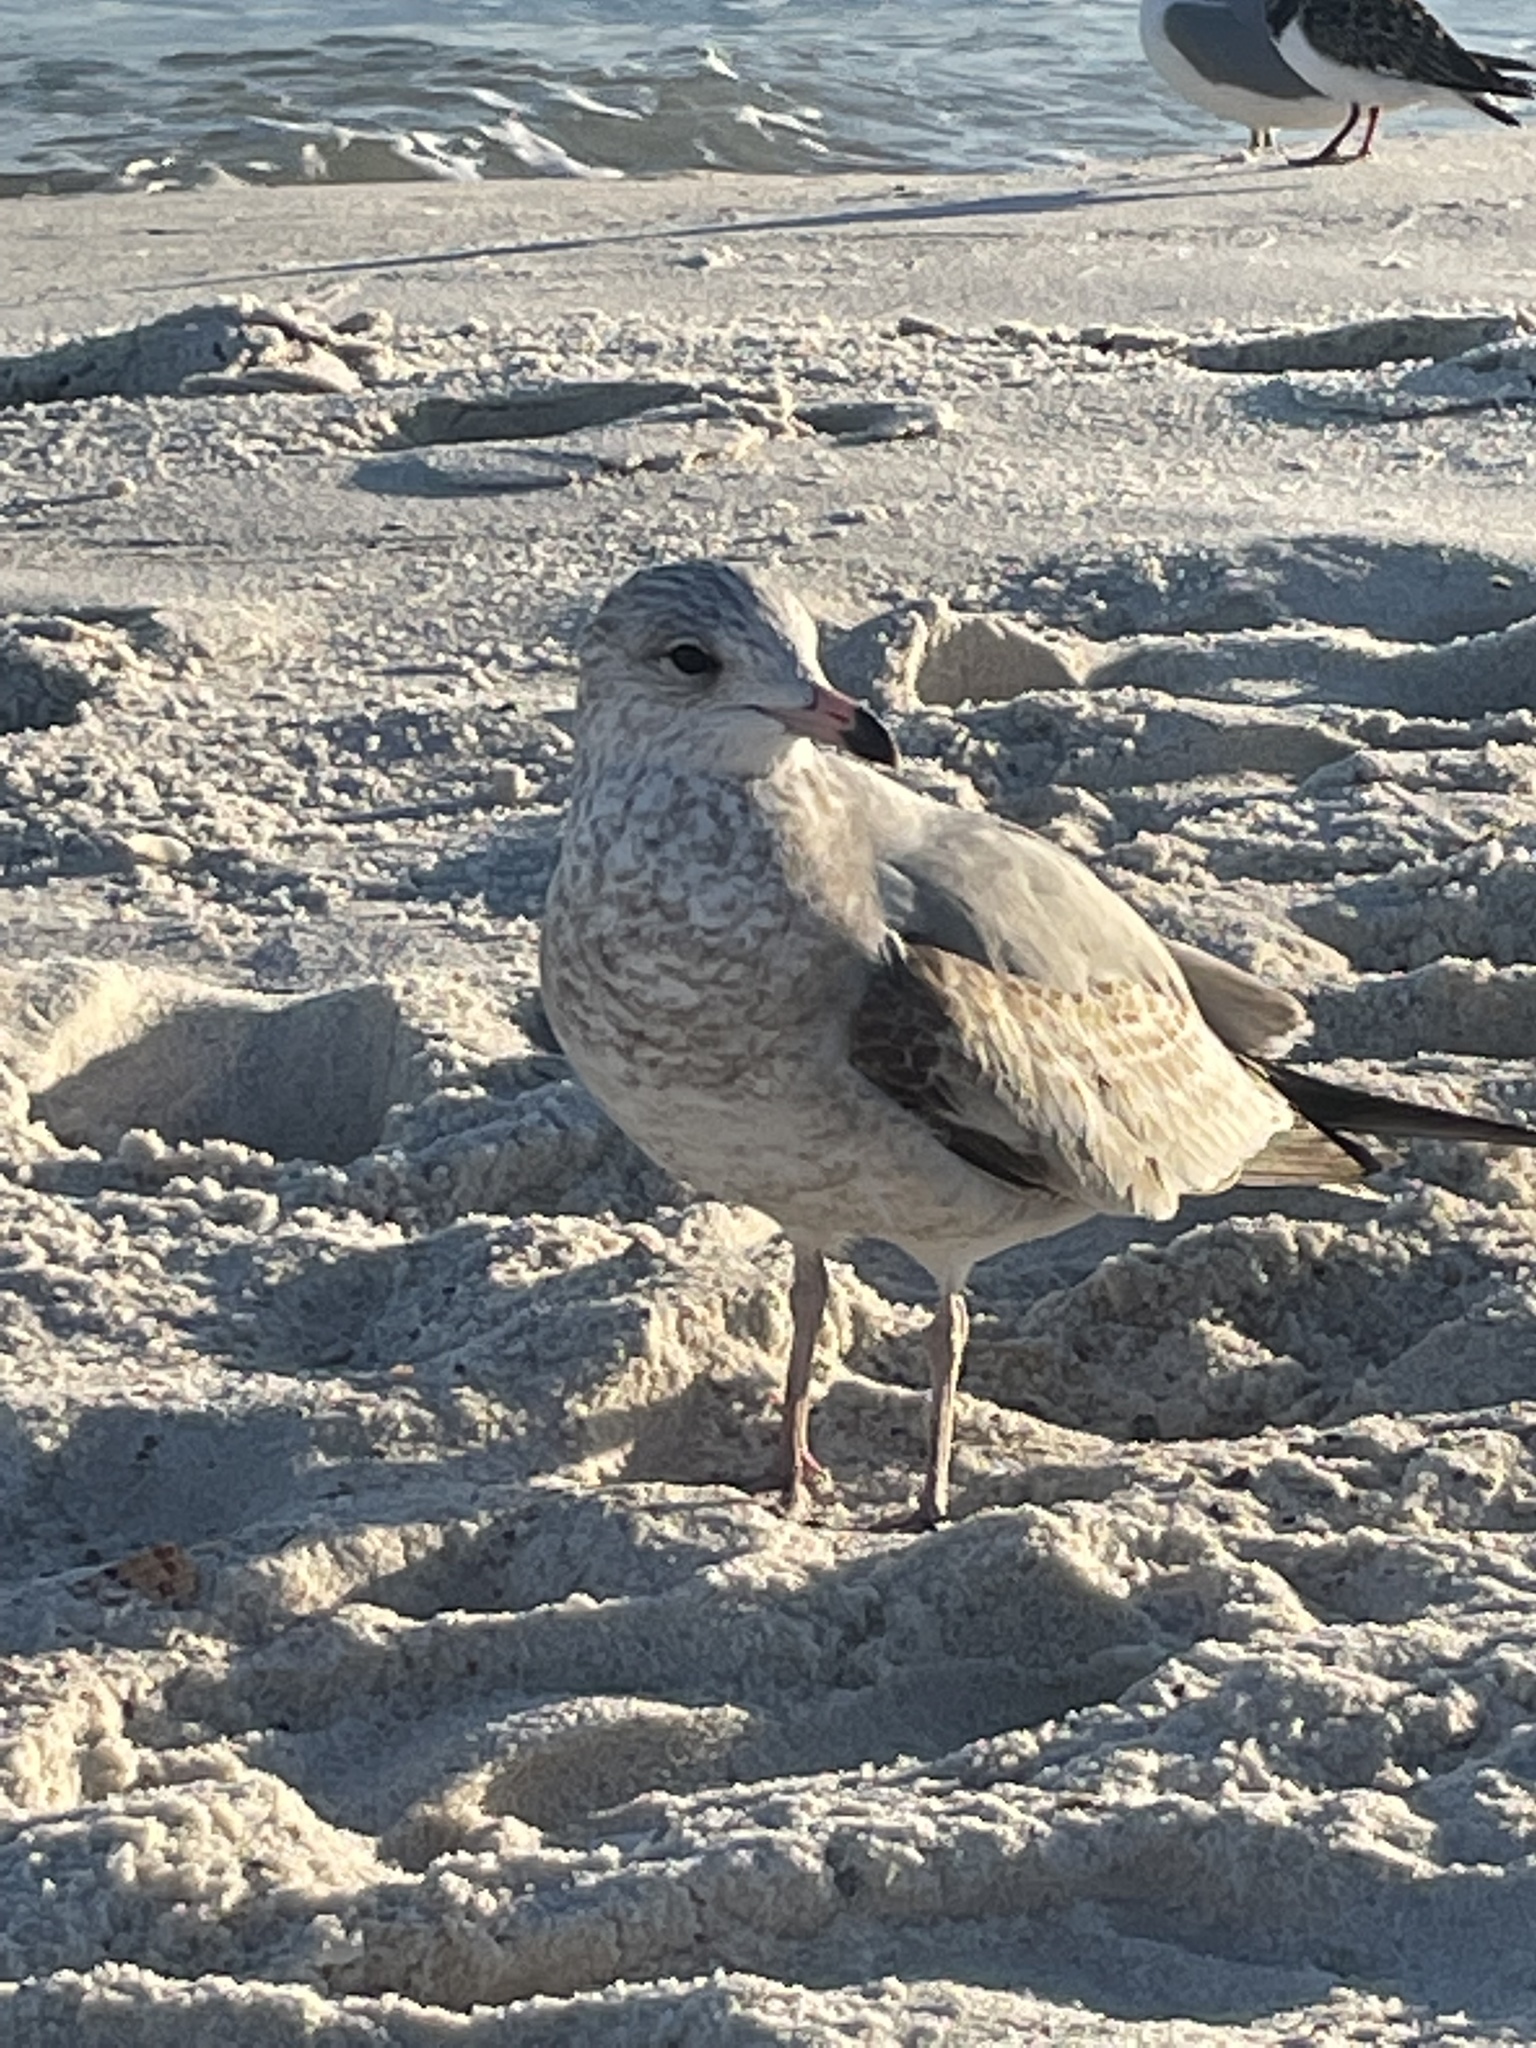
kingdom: Animalia
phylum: Chordata
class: Aves
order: Charadriiformes
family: Laridae
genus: Larus
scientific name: Larus delawarensis
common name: Ring-billed gull
